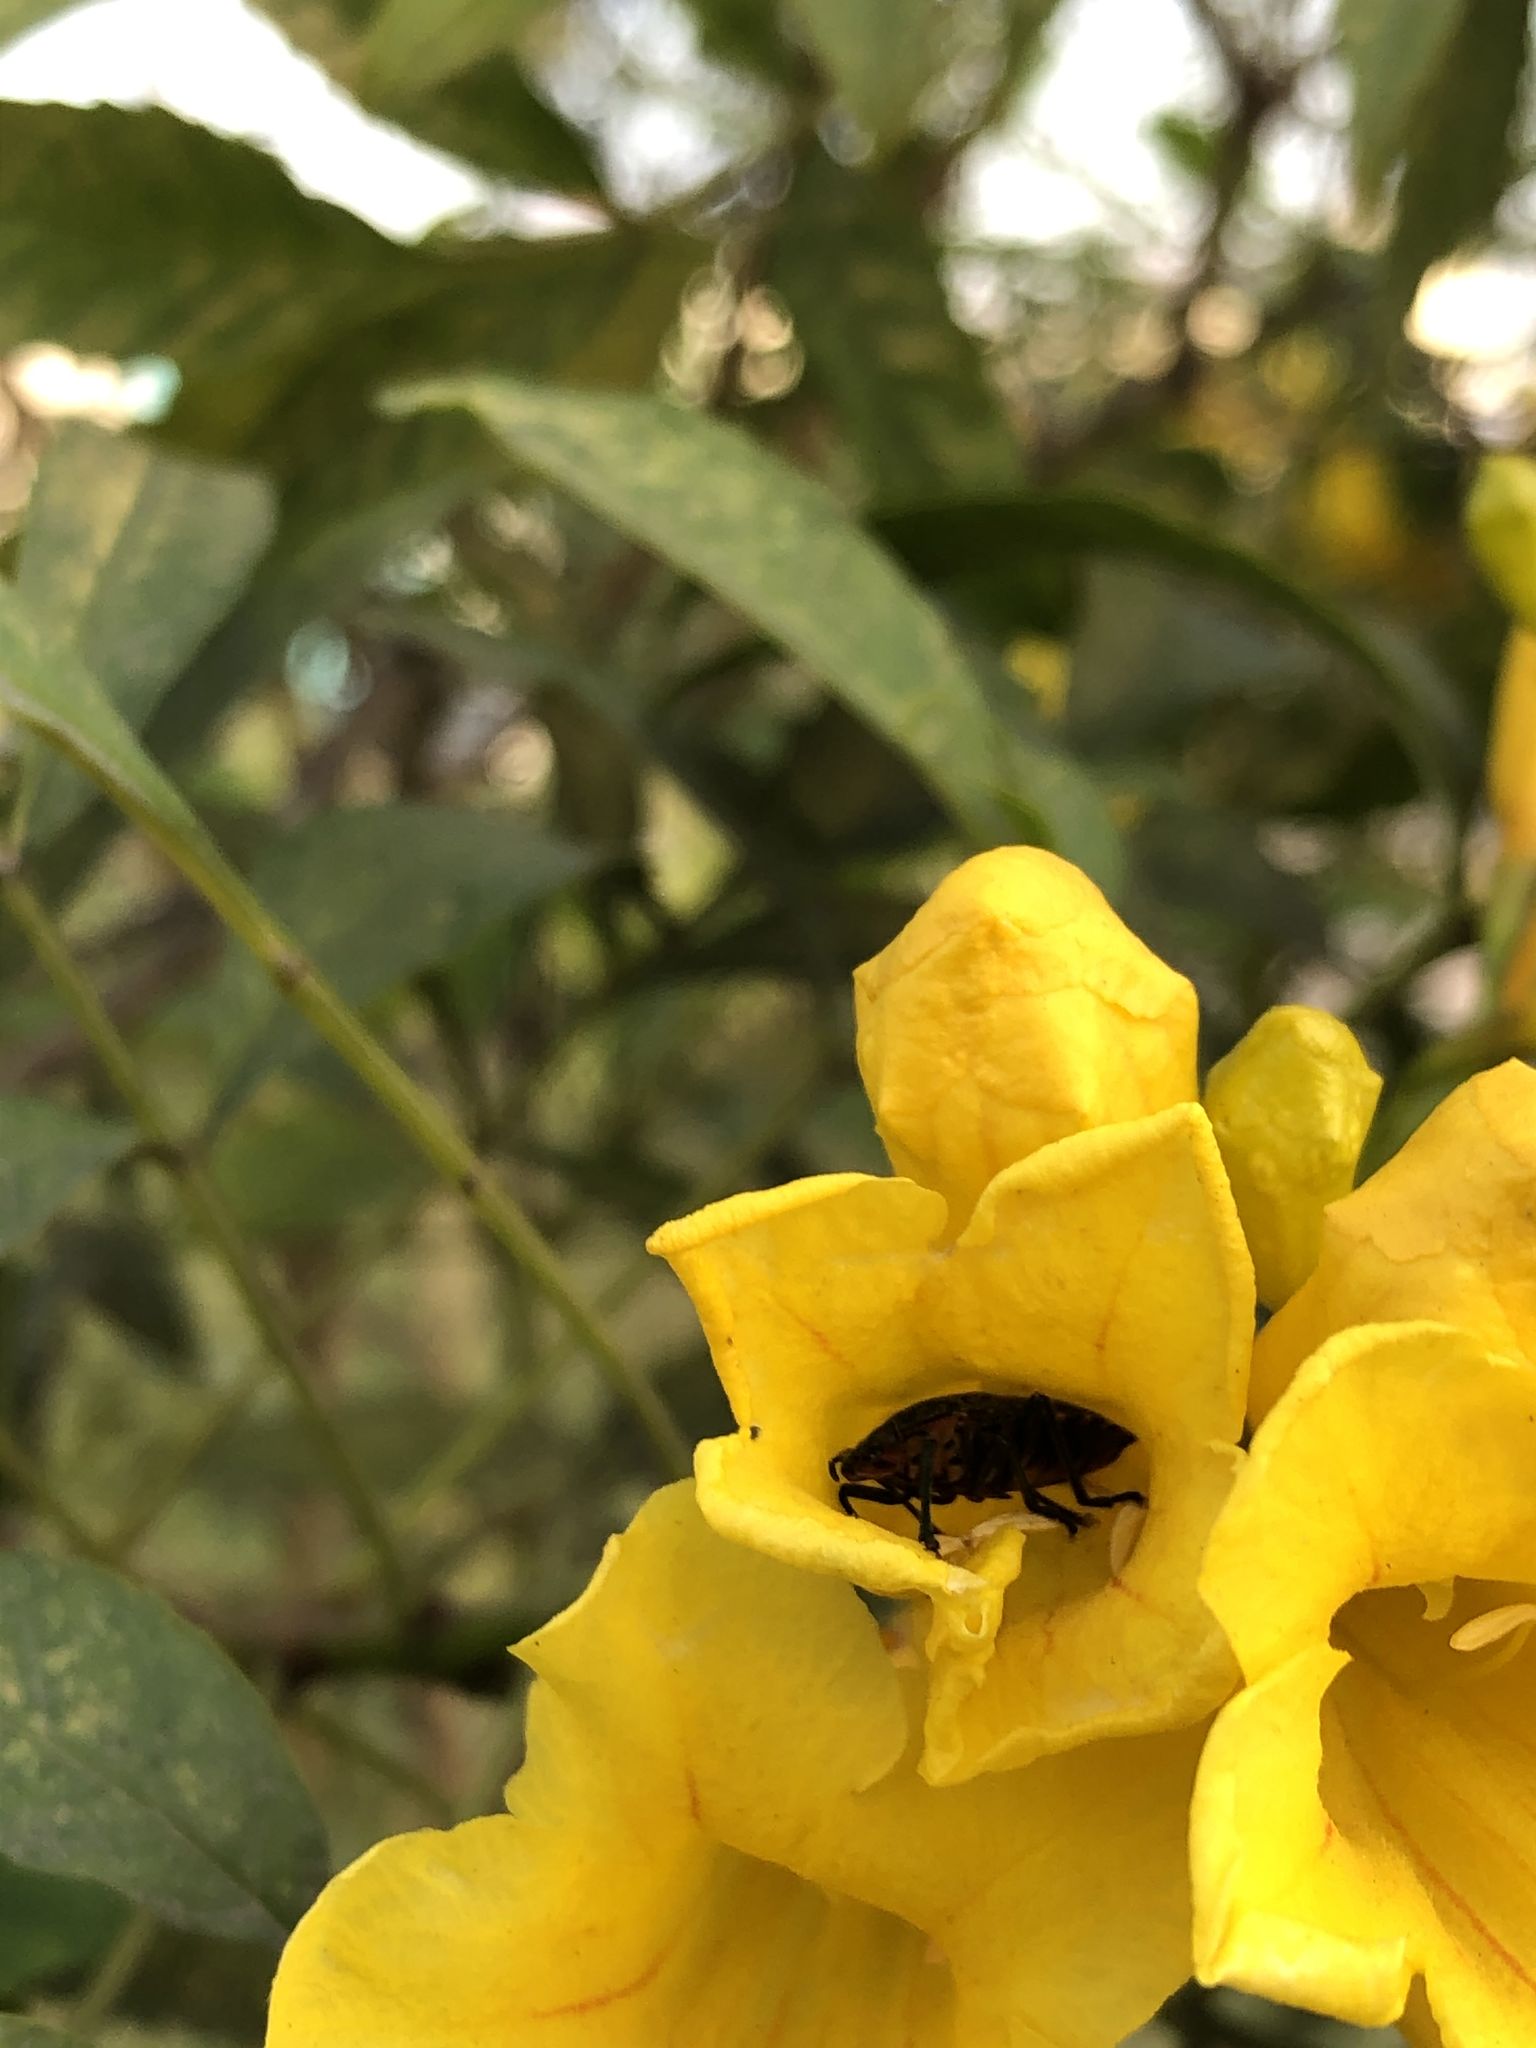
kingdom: Animalia
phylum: Arthropoda
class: Insecta
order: Hemiptera
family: Pentatomidae
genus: Pellaea
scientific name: Pellaea stictica
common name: Stink bug
